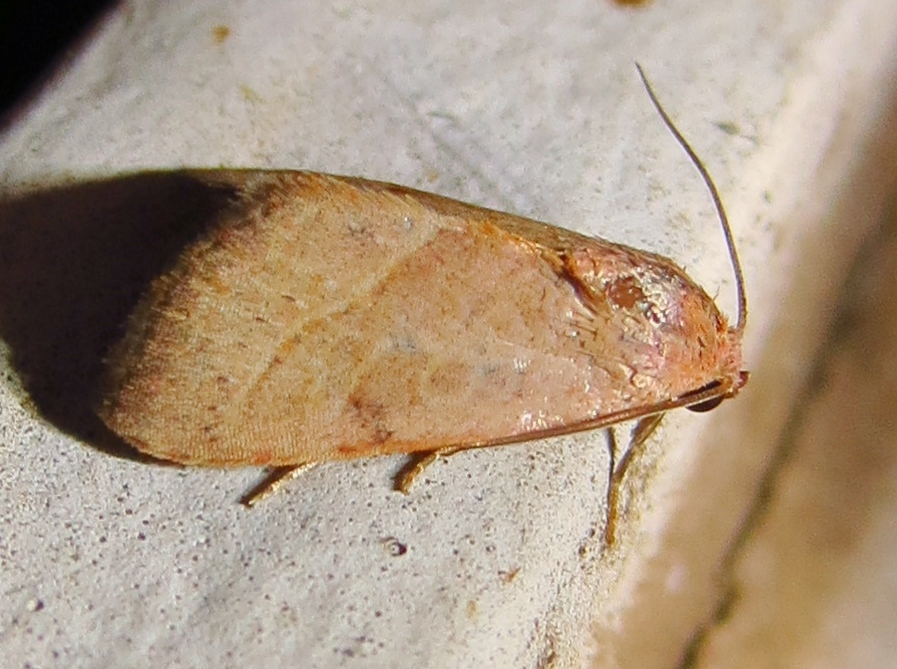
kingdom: Animalia
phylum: Arthropoda
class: Insecta
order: Lepidoptera
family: Noctuidae
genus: Galgula
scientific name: Galgula partita
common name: Wedgeling
